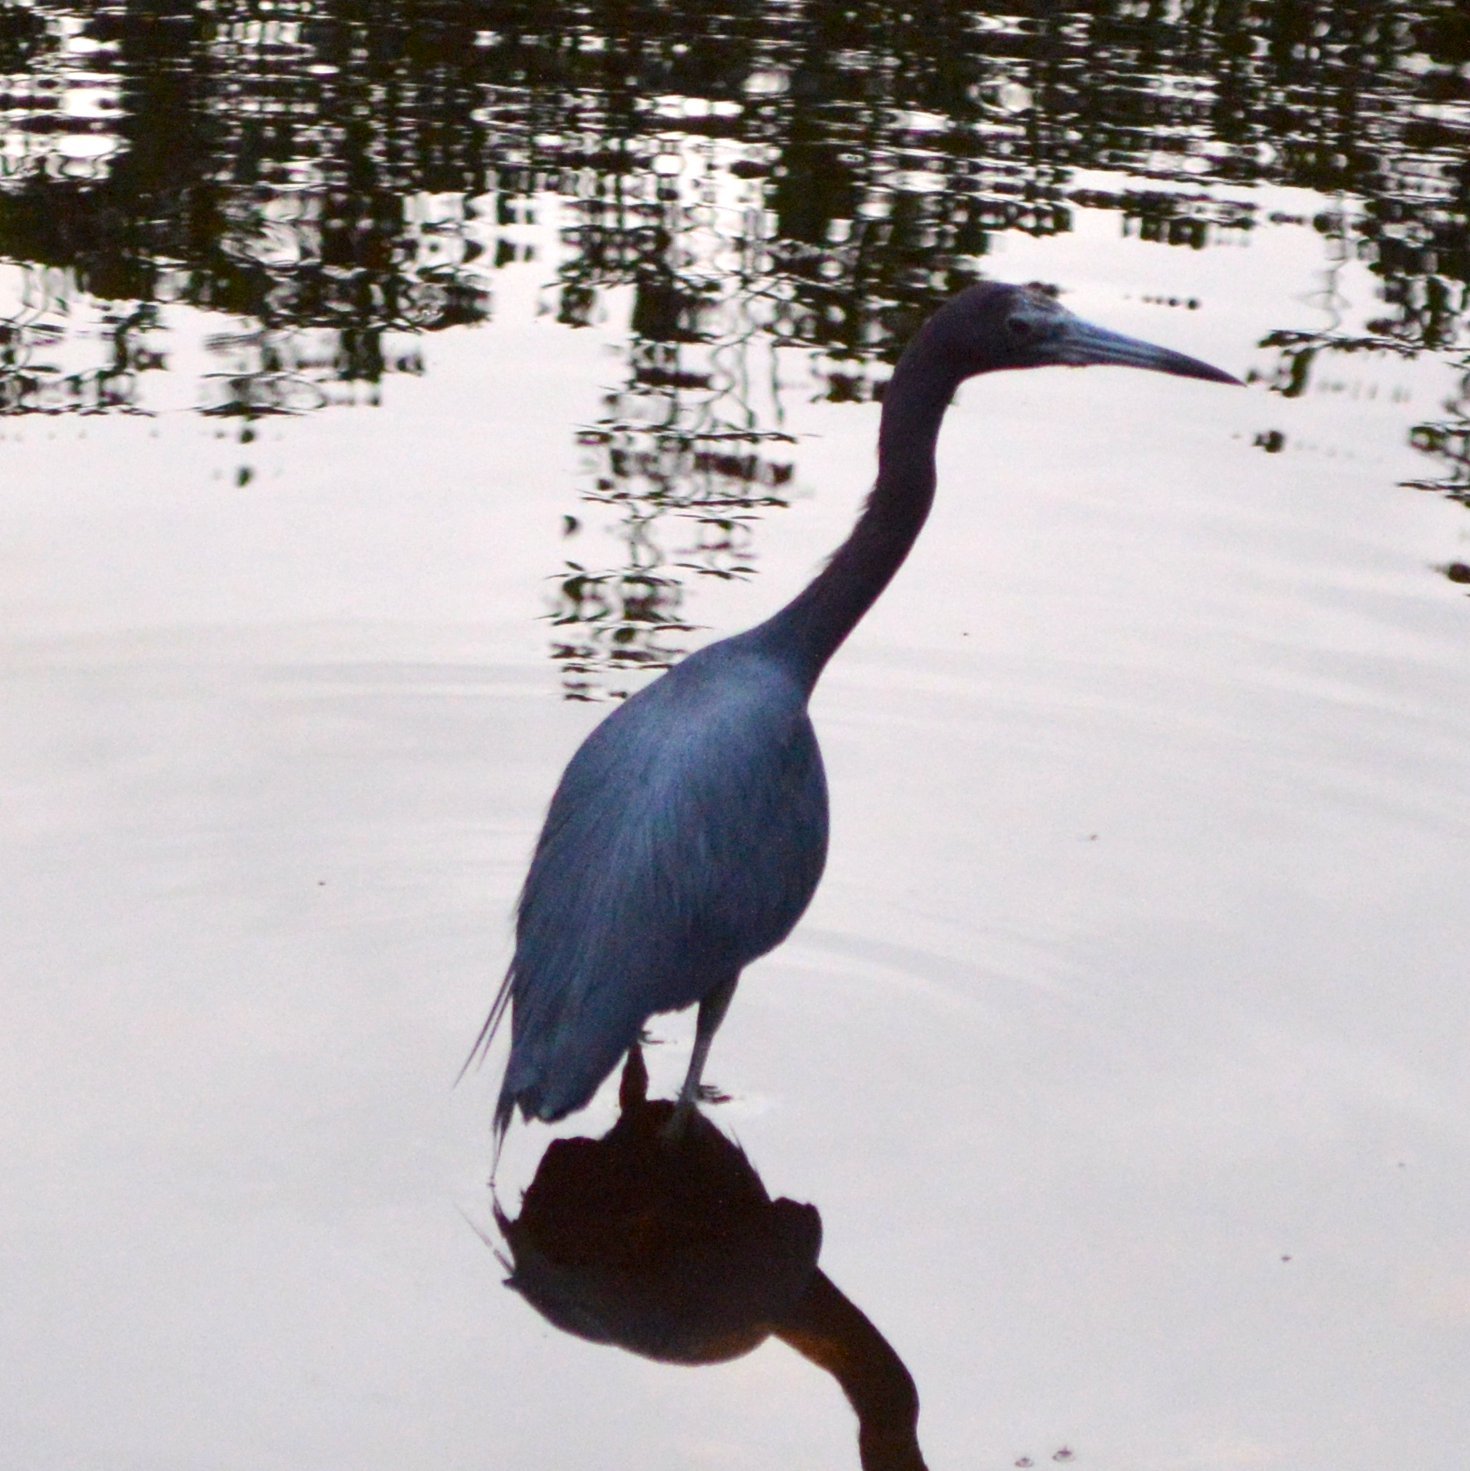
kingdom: Animalia
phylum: Chordata
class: Aves
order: Pelecaniformes
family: Ardeidae
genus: Egretta
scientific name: Egretta caerulea
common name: Little blue heron
